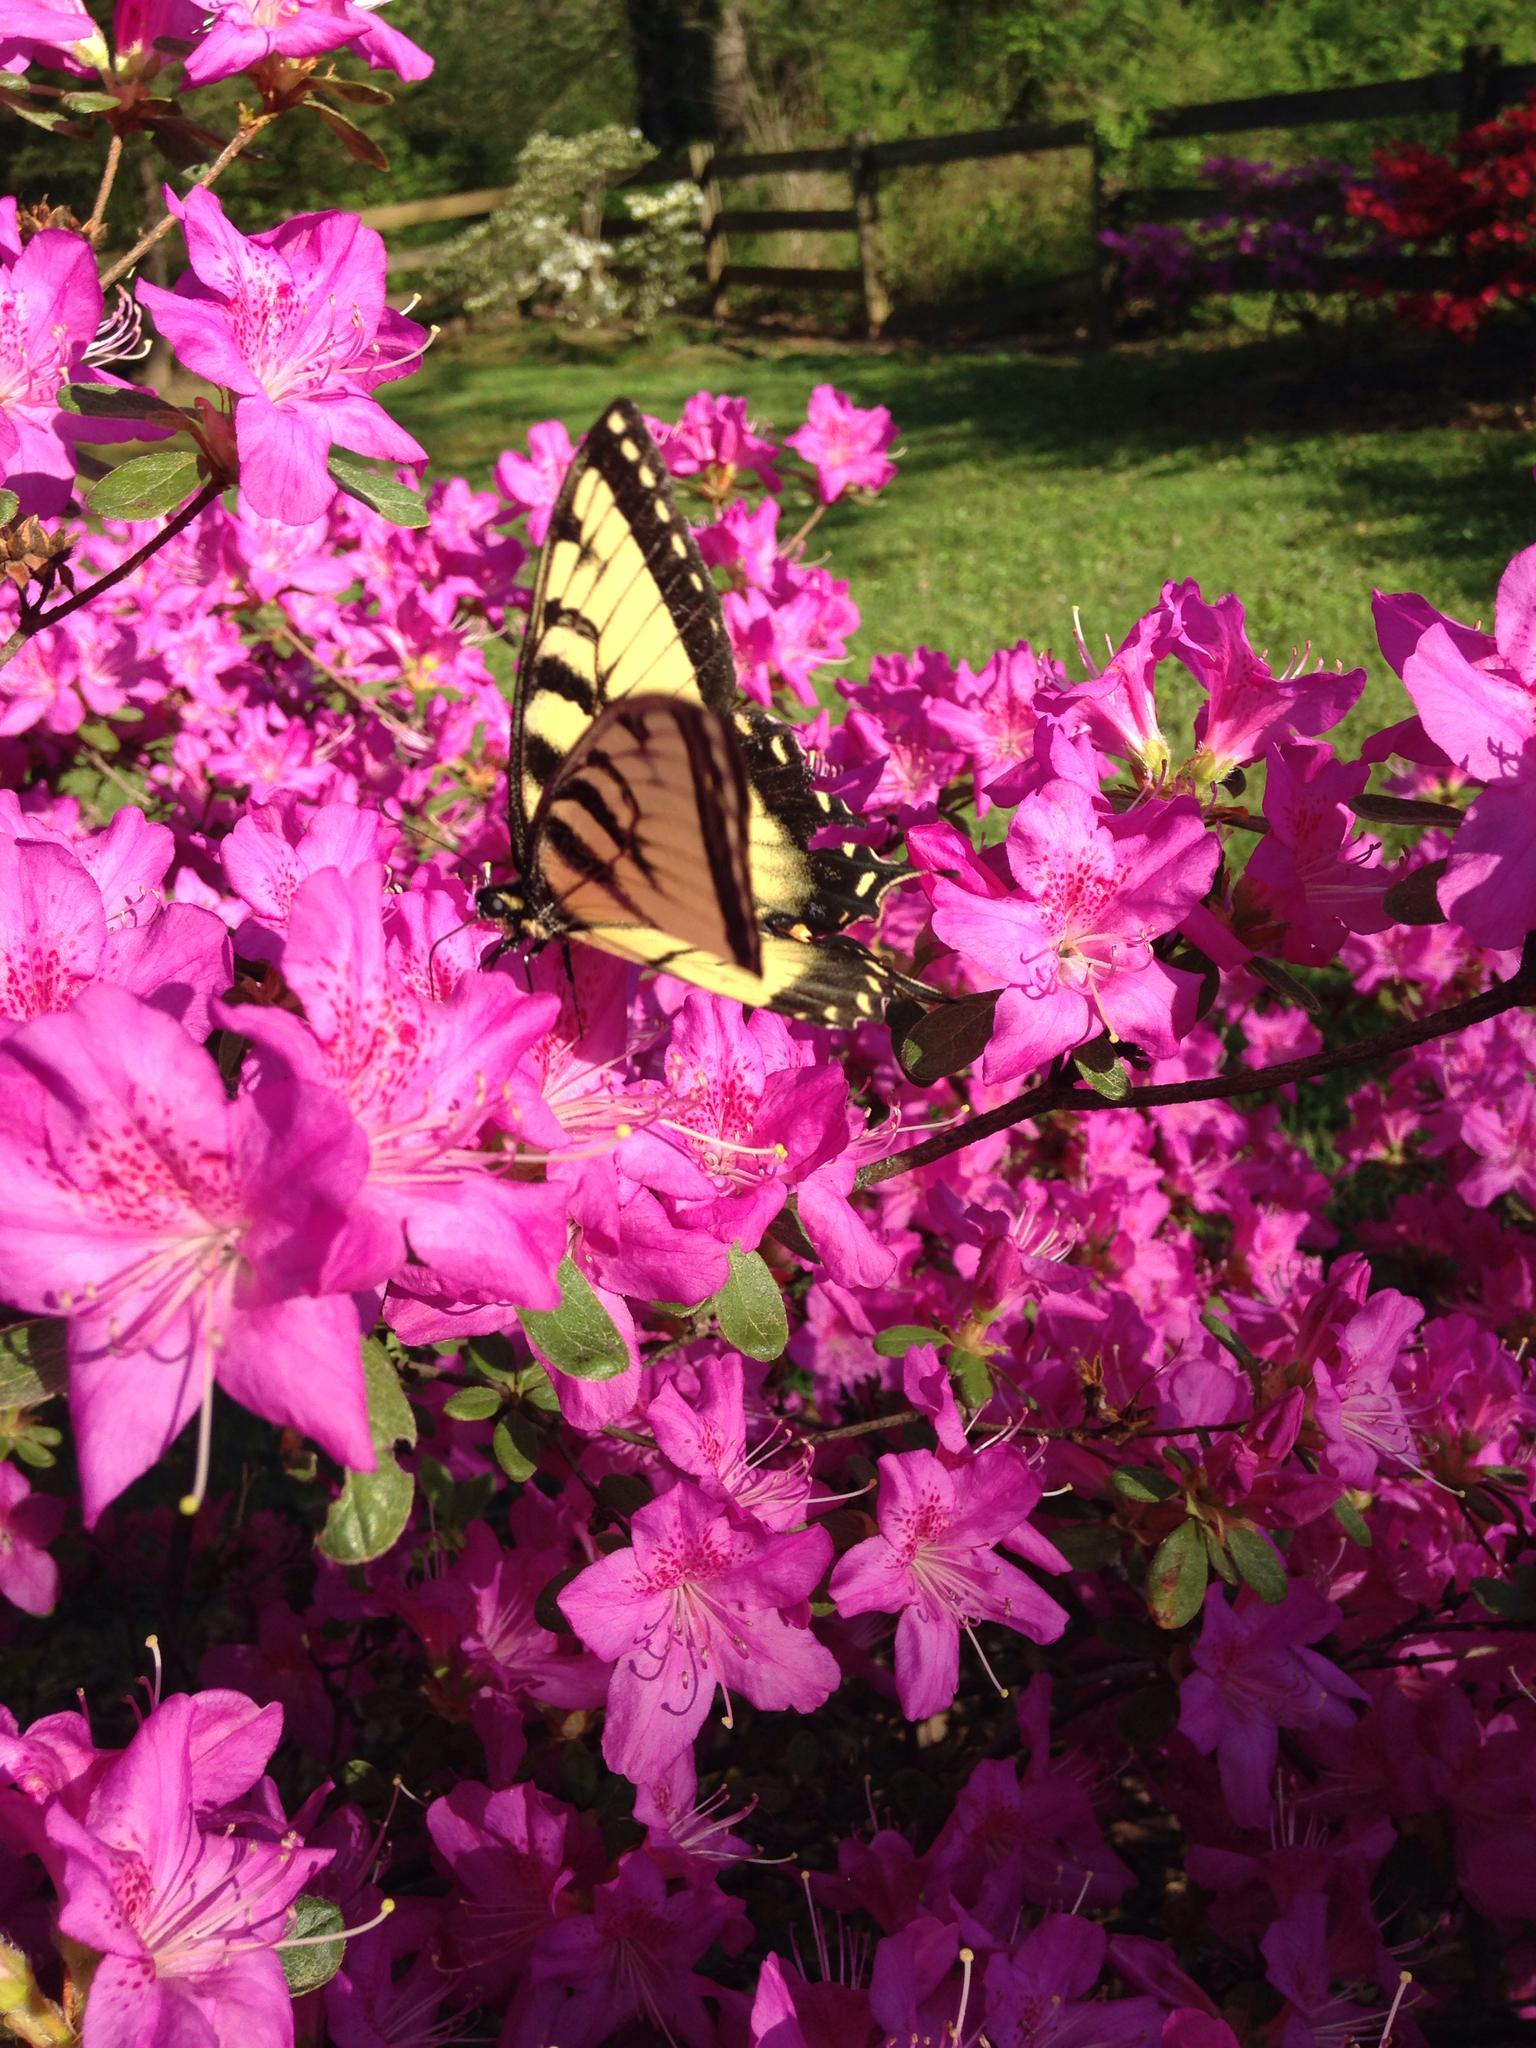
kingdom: Animalia
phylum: Arthropoda
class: Insecta
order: Lepidoptera
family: Papilionidae
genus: Papilio
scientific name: Papilio glaucus
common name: Tiger swallowtail
